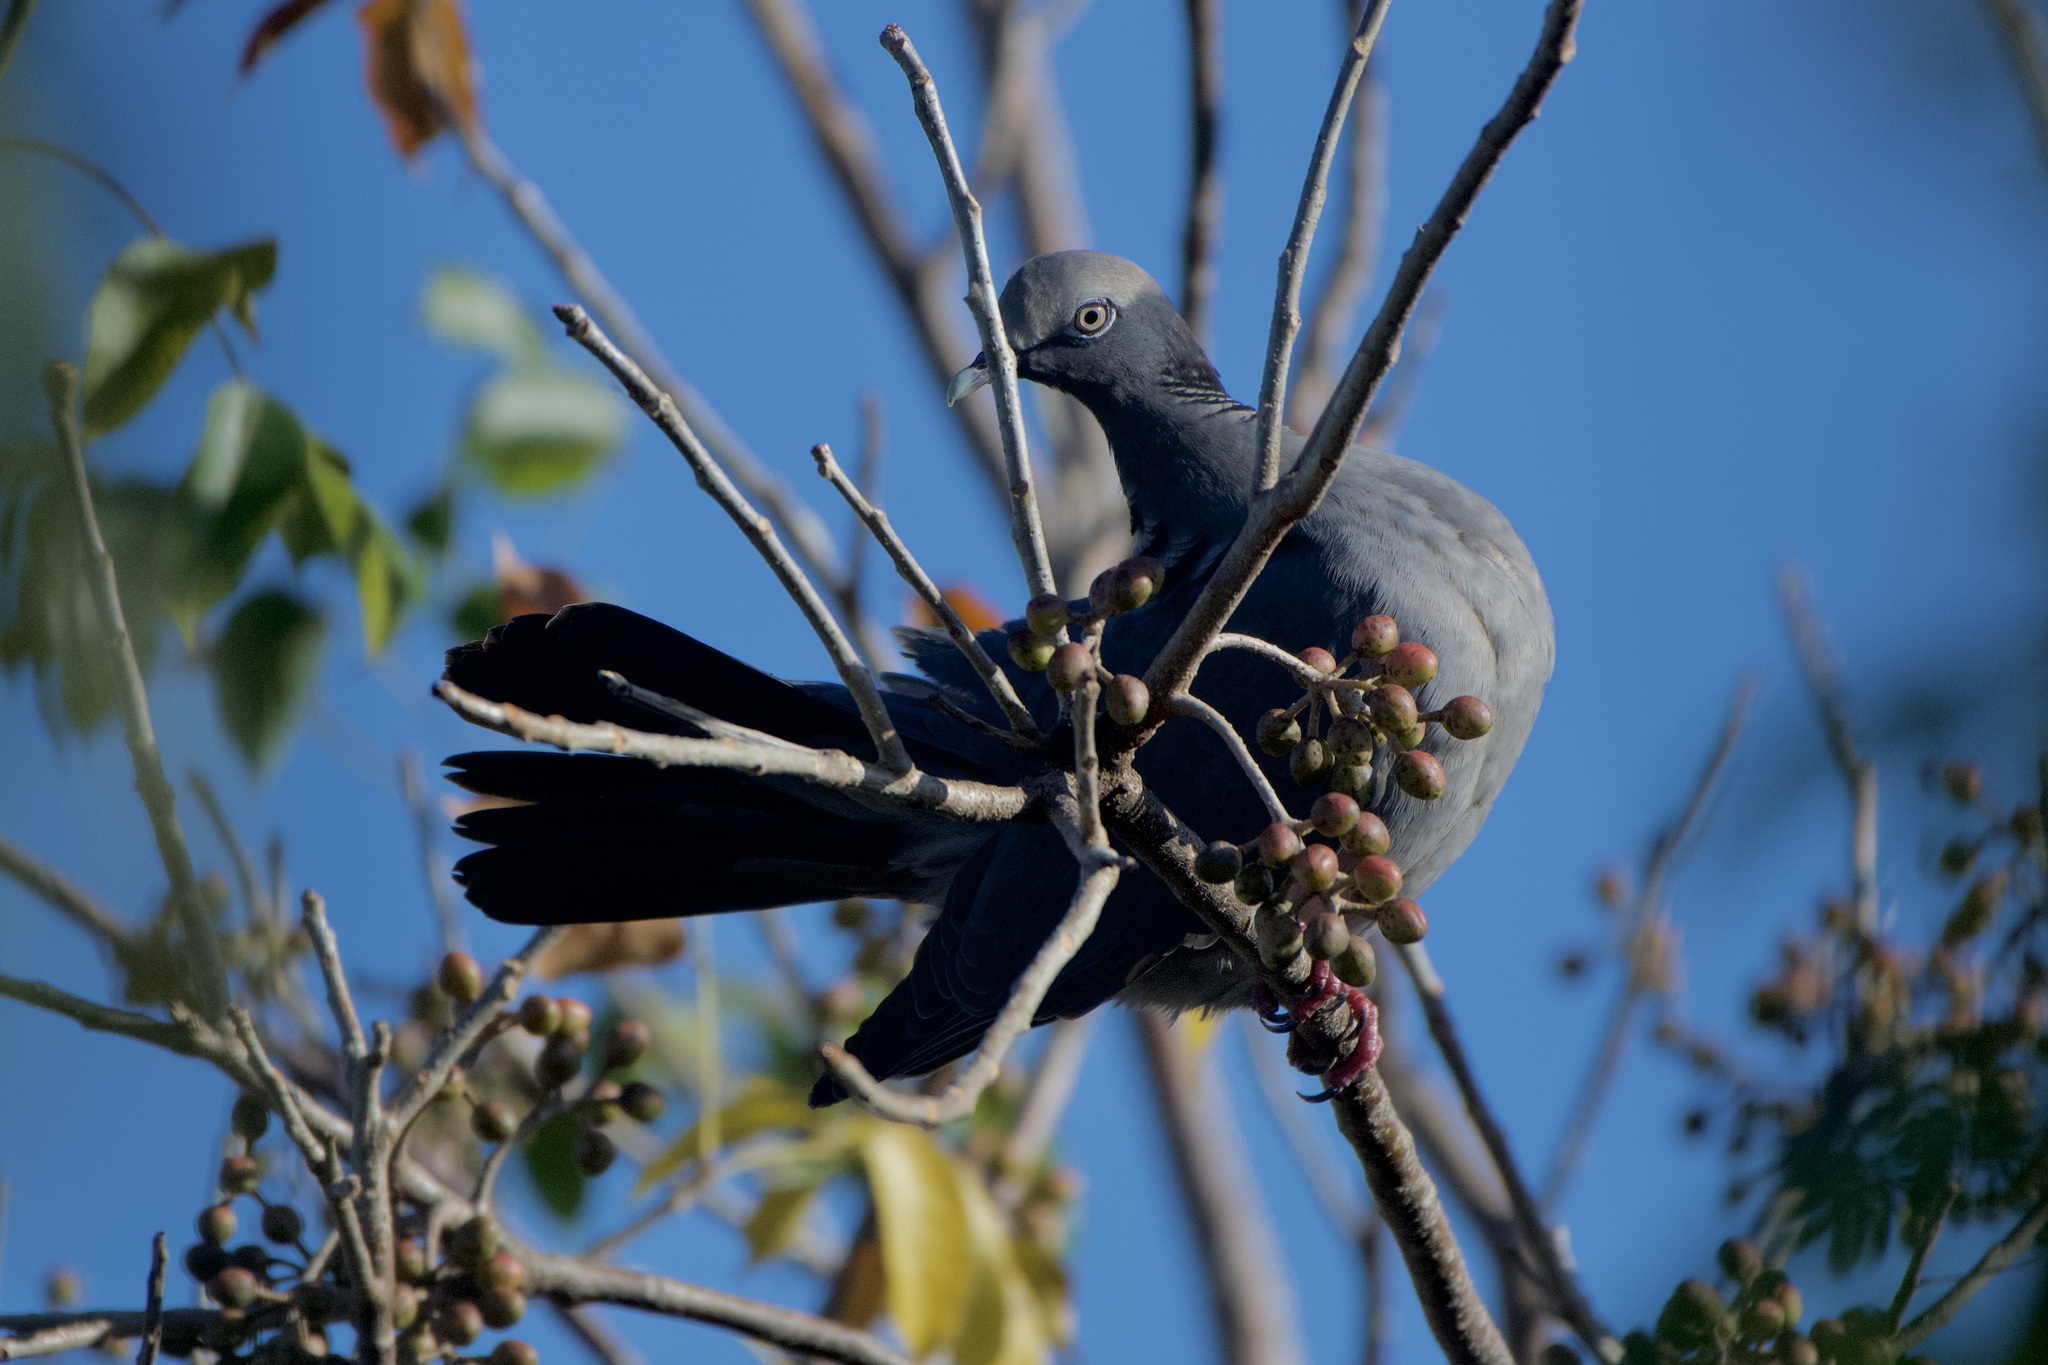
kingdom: Animalia
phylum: Chordata
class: Aves
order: Columbiformes
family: Columbidae
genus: Patagioenas
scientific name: Patagioenas leucocephala
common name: White-crowned pigeon
